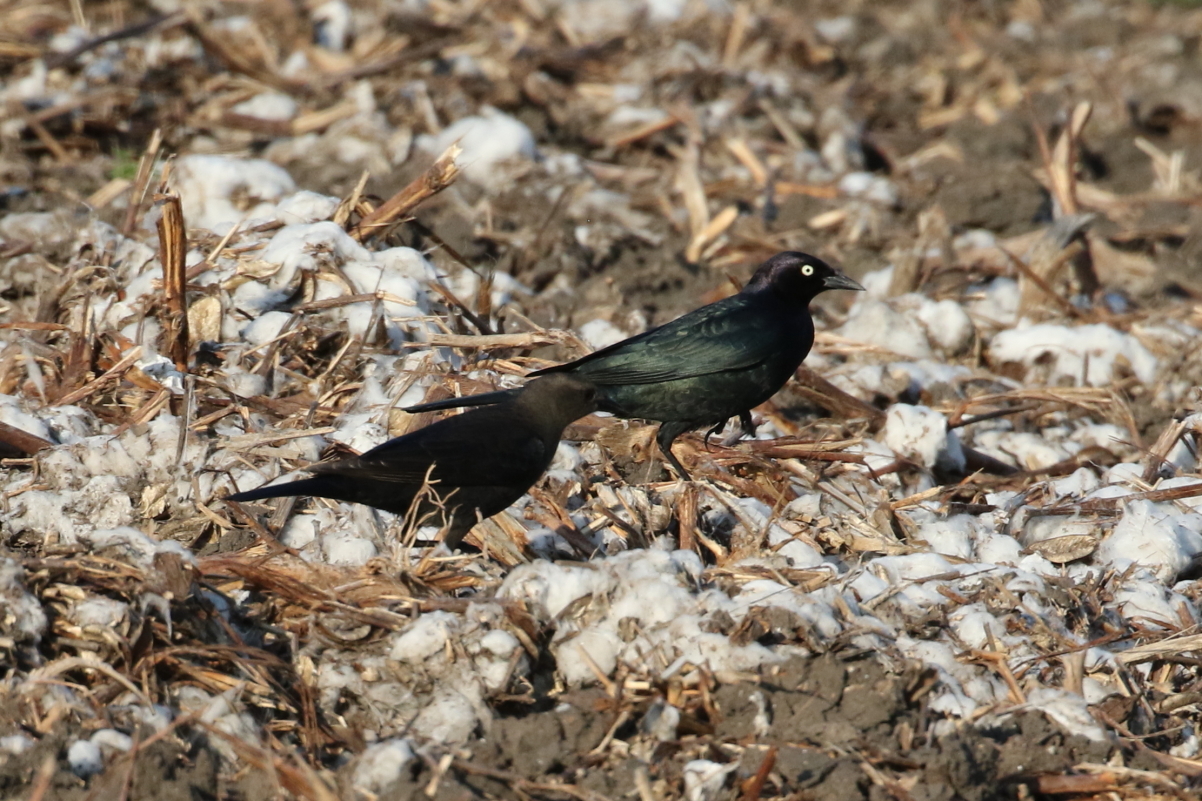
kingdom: Animalia
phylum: Chordata
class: Aves
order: Passeriformes
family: Icteridae
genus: Euphagus
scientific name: Euphagus cyanocephalus
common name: Brewer's blackbird
